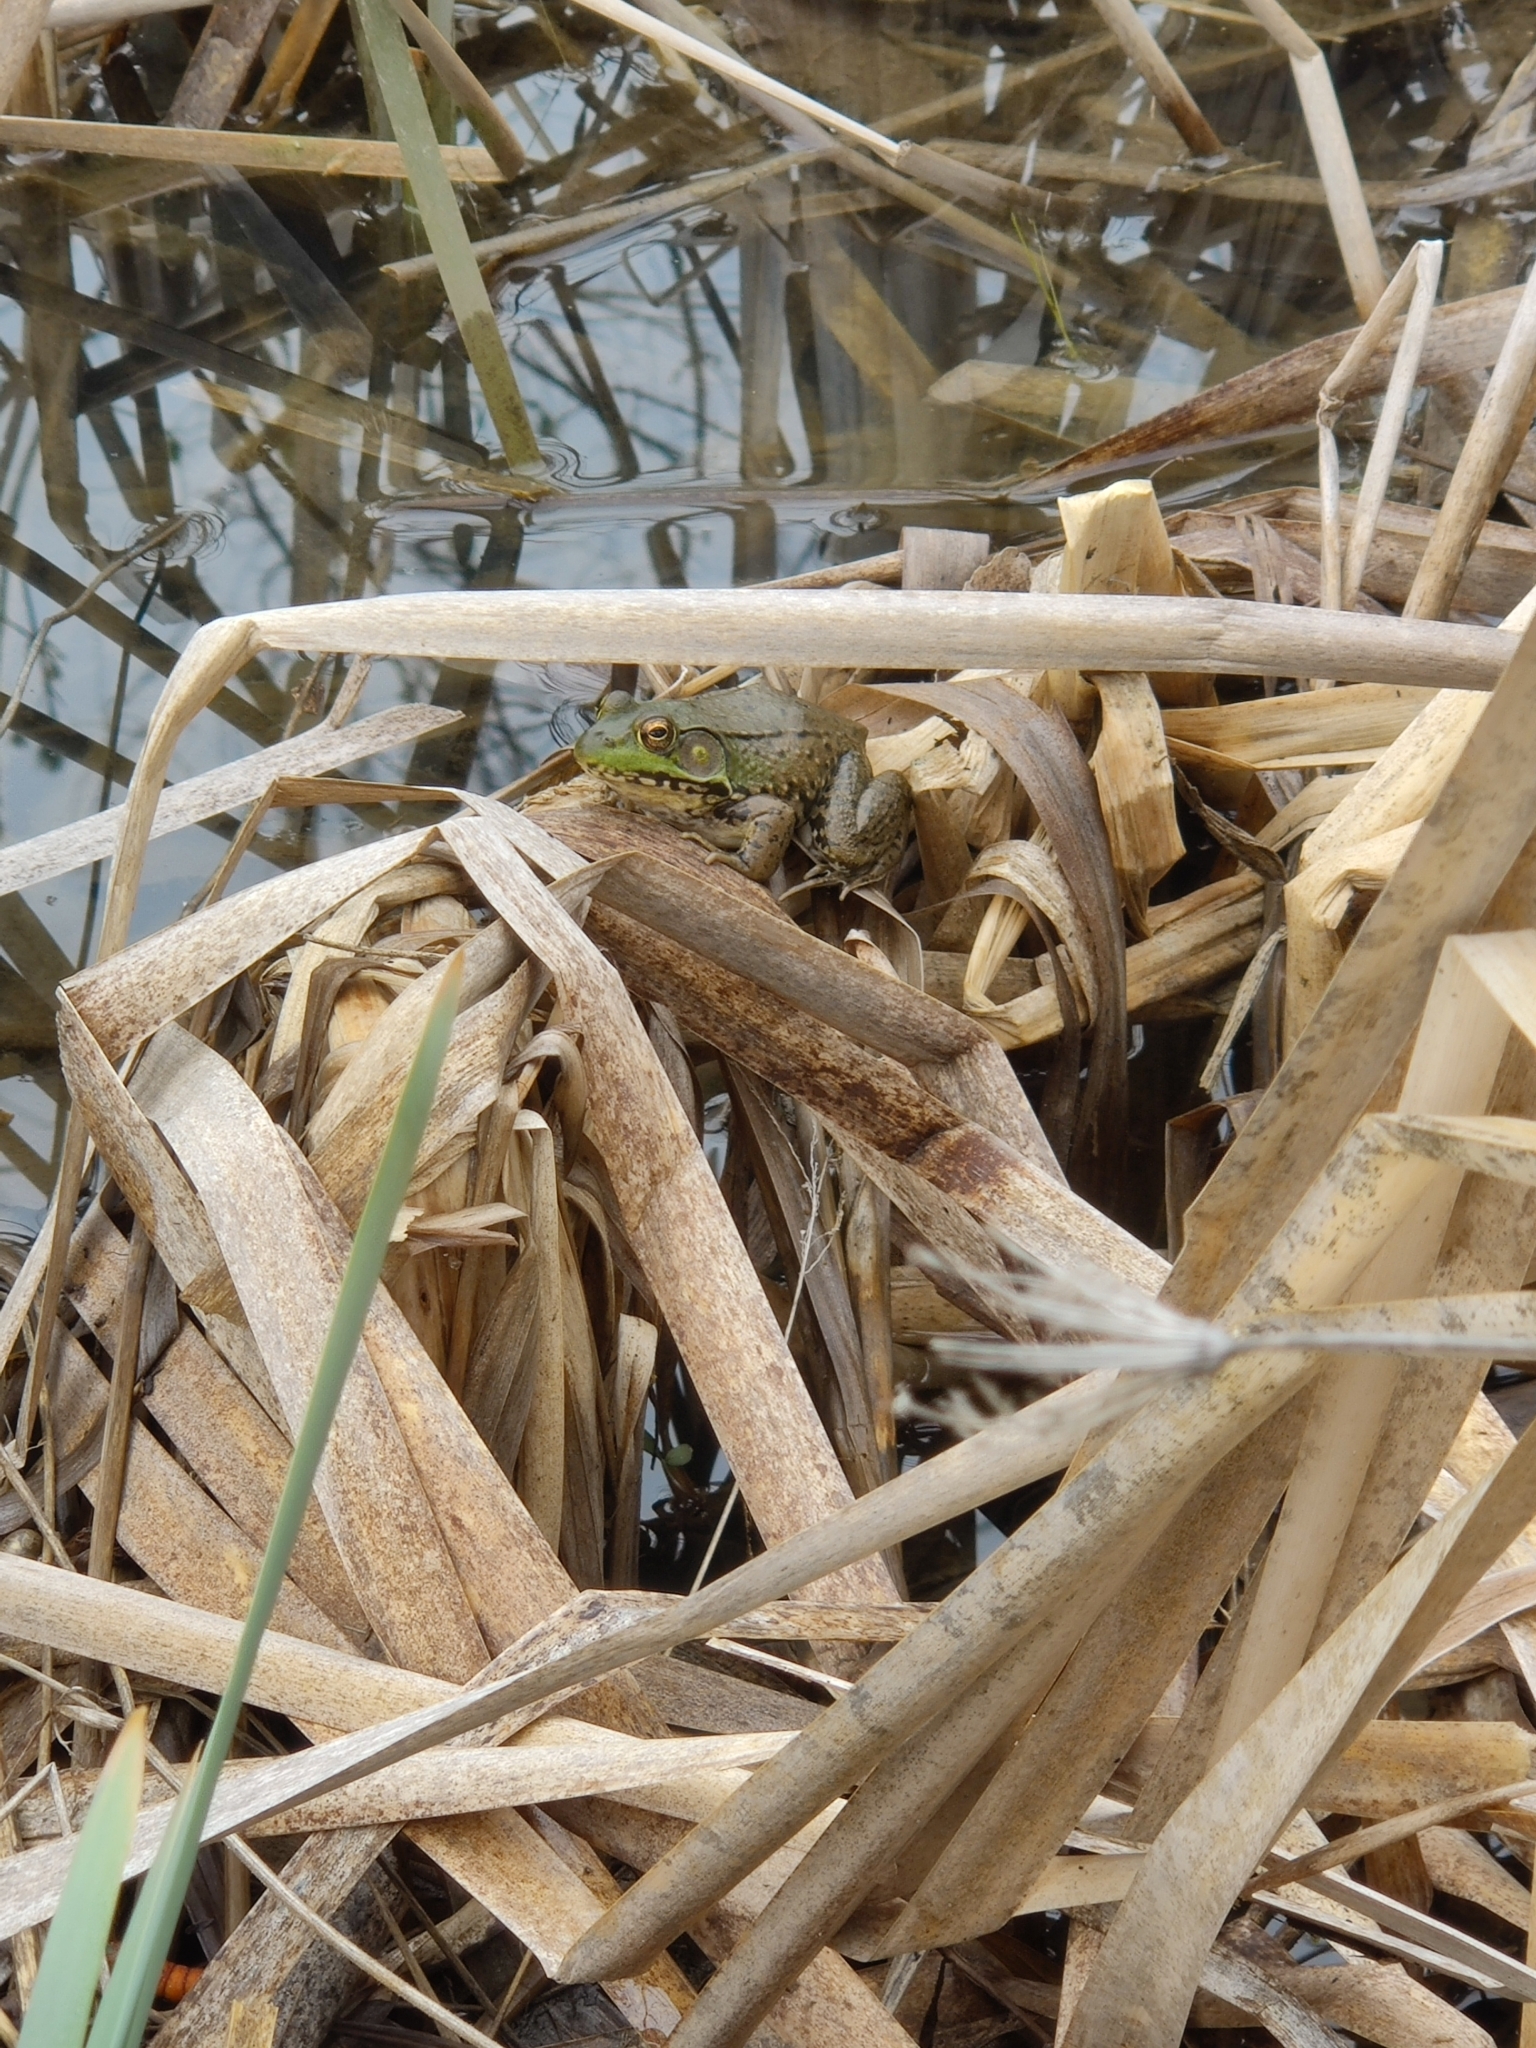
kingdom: Animalia
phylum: Chordata
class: Amphibia
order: Anura
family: Ranidae
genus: Lithobates
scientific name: Lithobates clamitans
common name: Green frog
